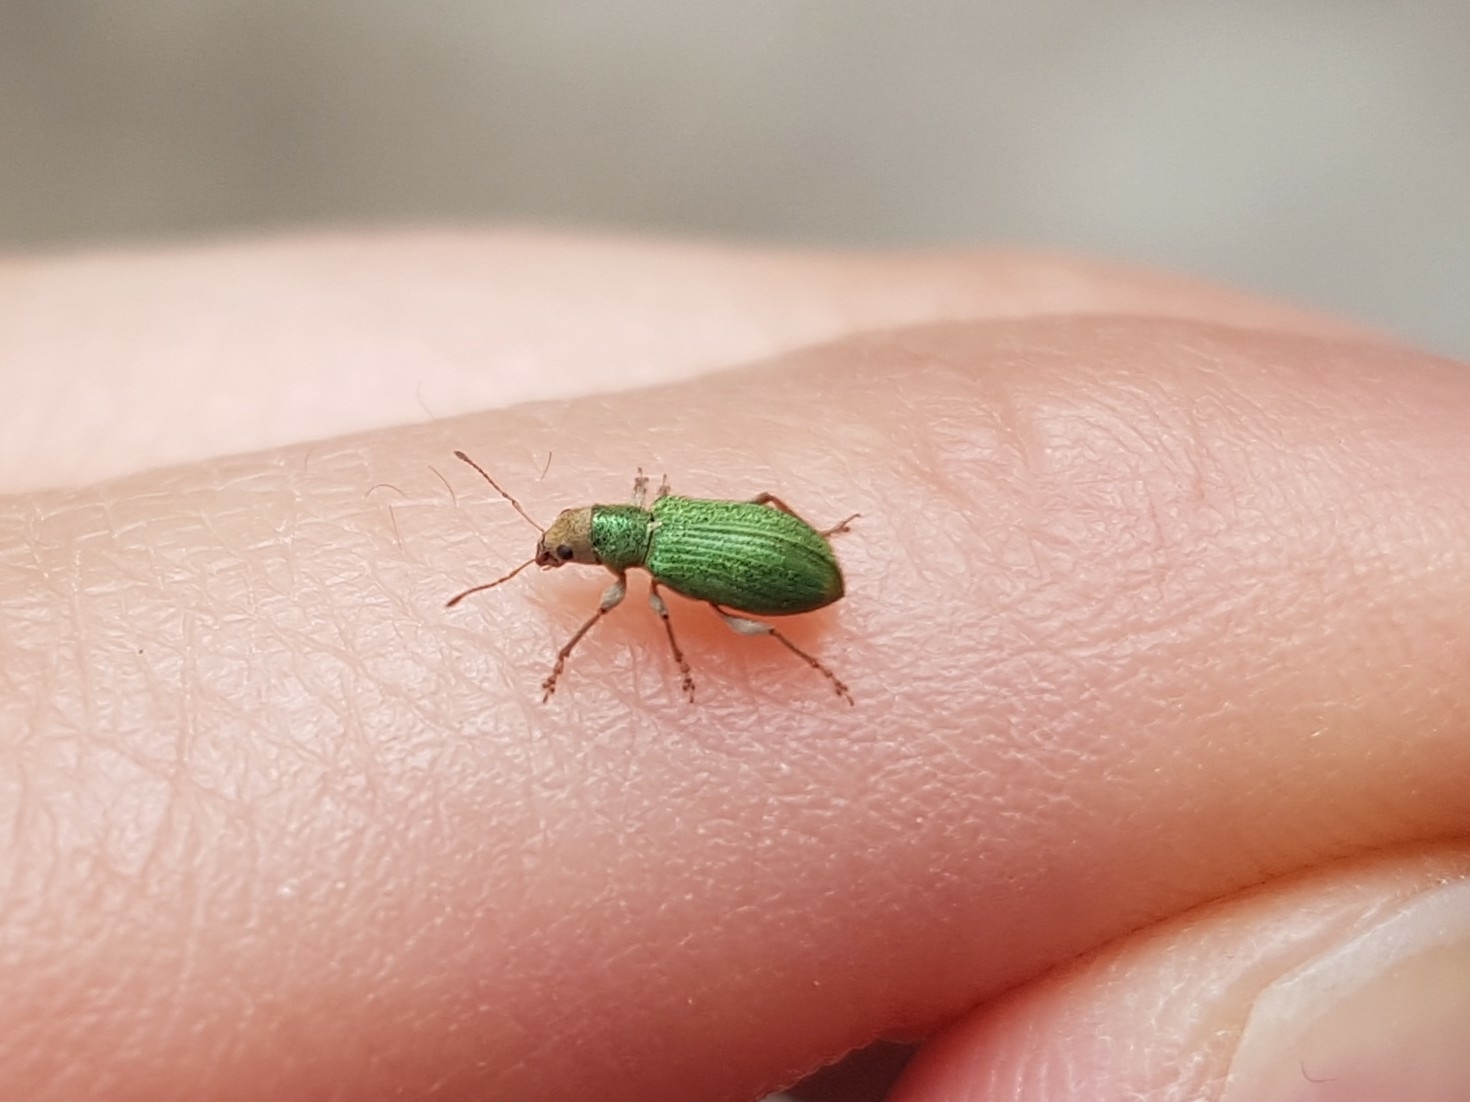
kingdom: Animalia
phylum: Arthropoda
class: Insecta
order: Coleoptera
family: Curculionidae
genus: Pachyrhinus
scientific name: Pachyrhinus lethierryi
